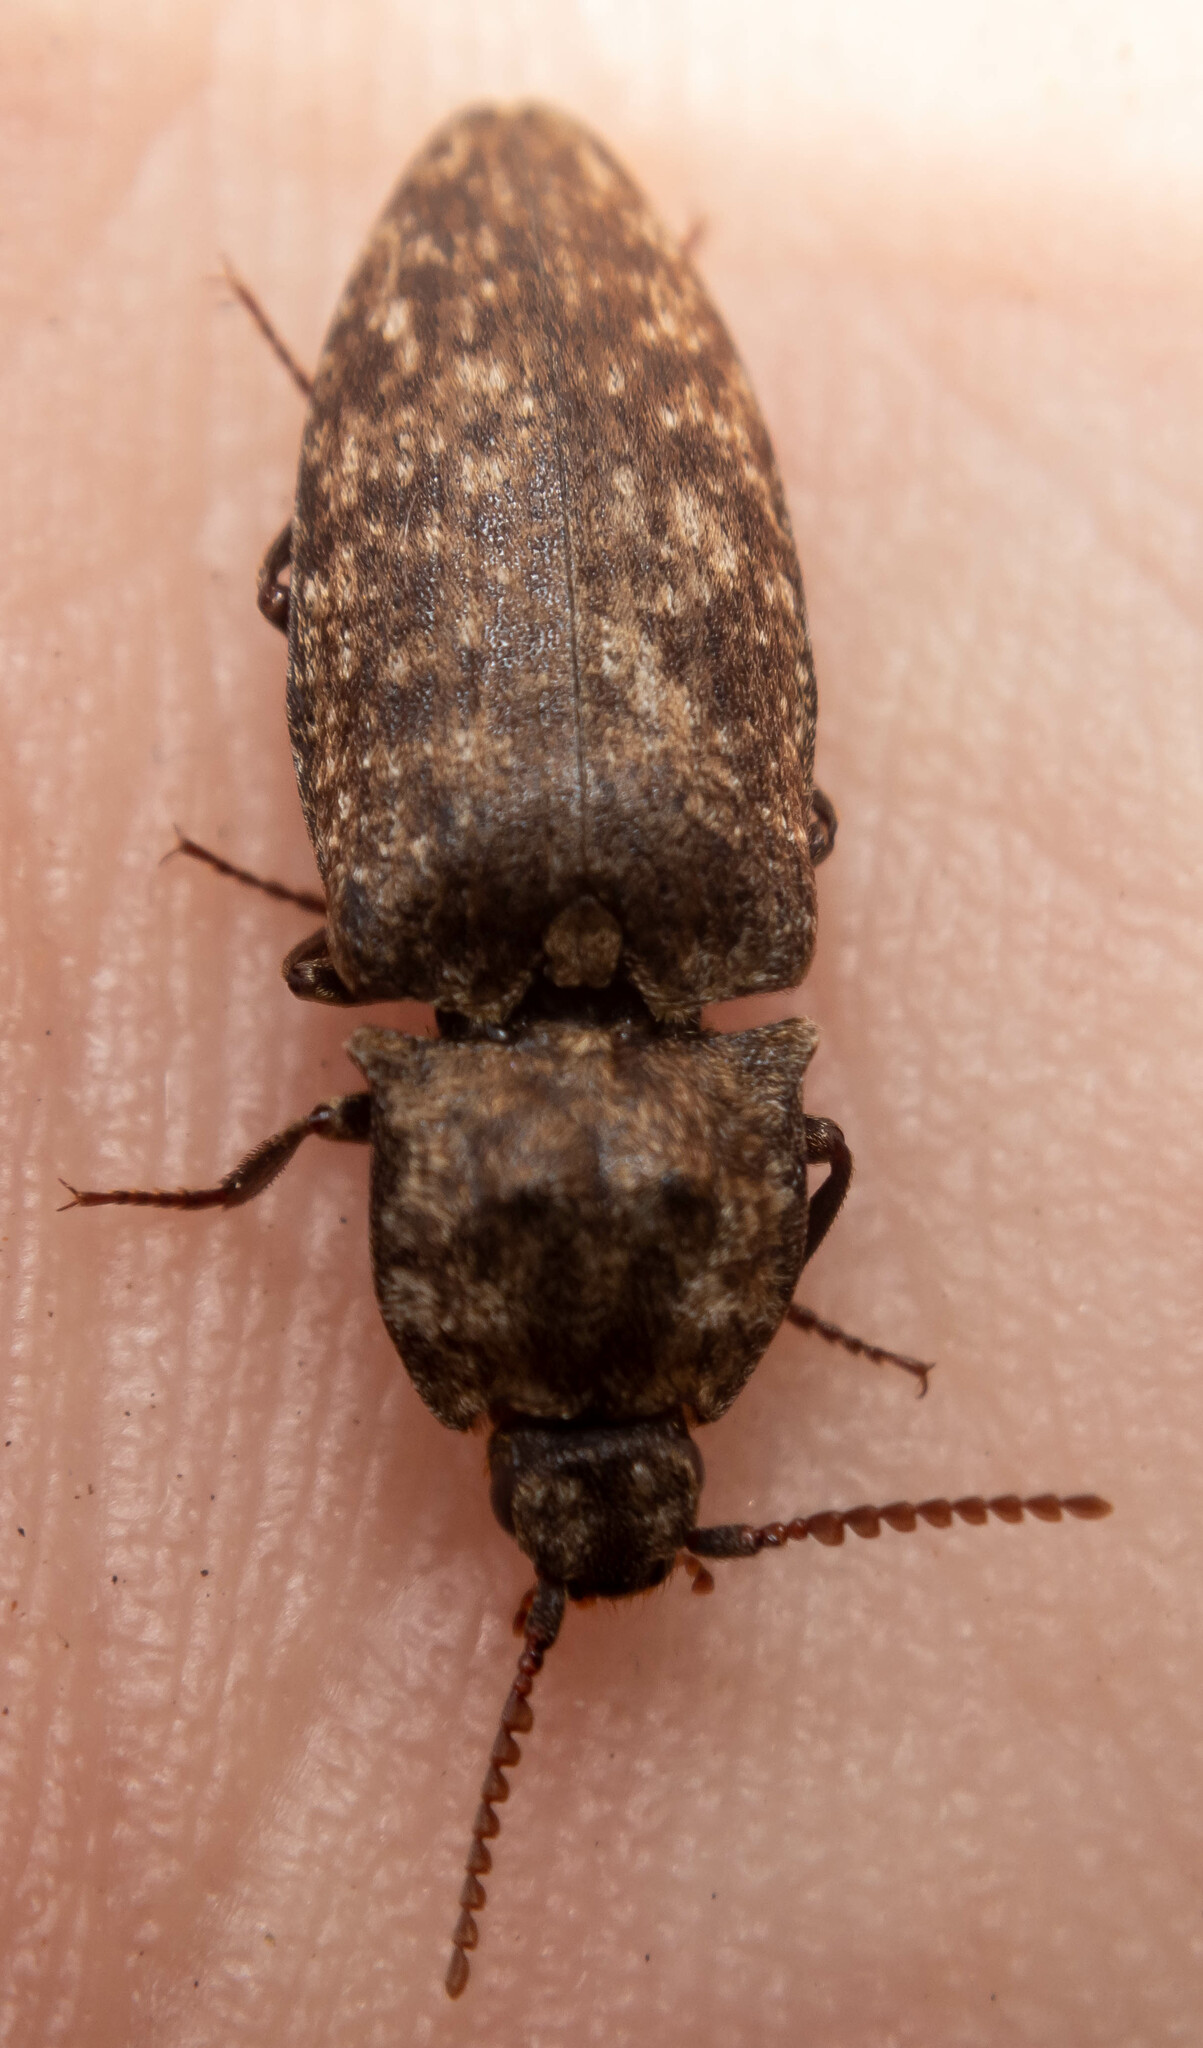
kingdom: Animalia
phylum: Arthropoda
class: Insecta
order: Coleoptera
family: Elateridae
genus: Agrypnus
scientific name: Agrypnus murinus
